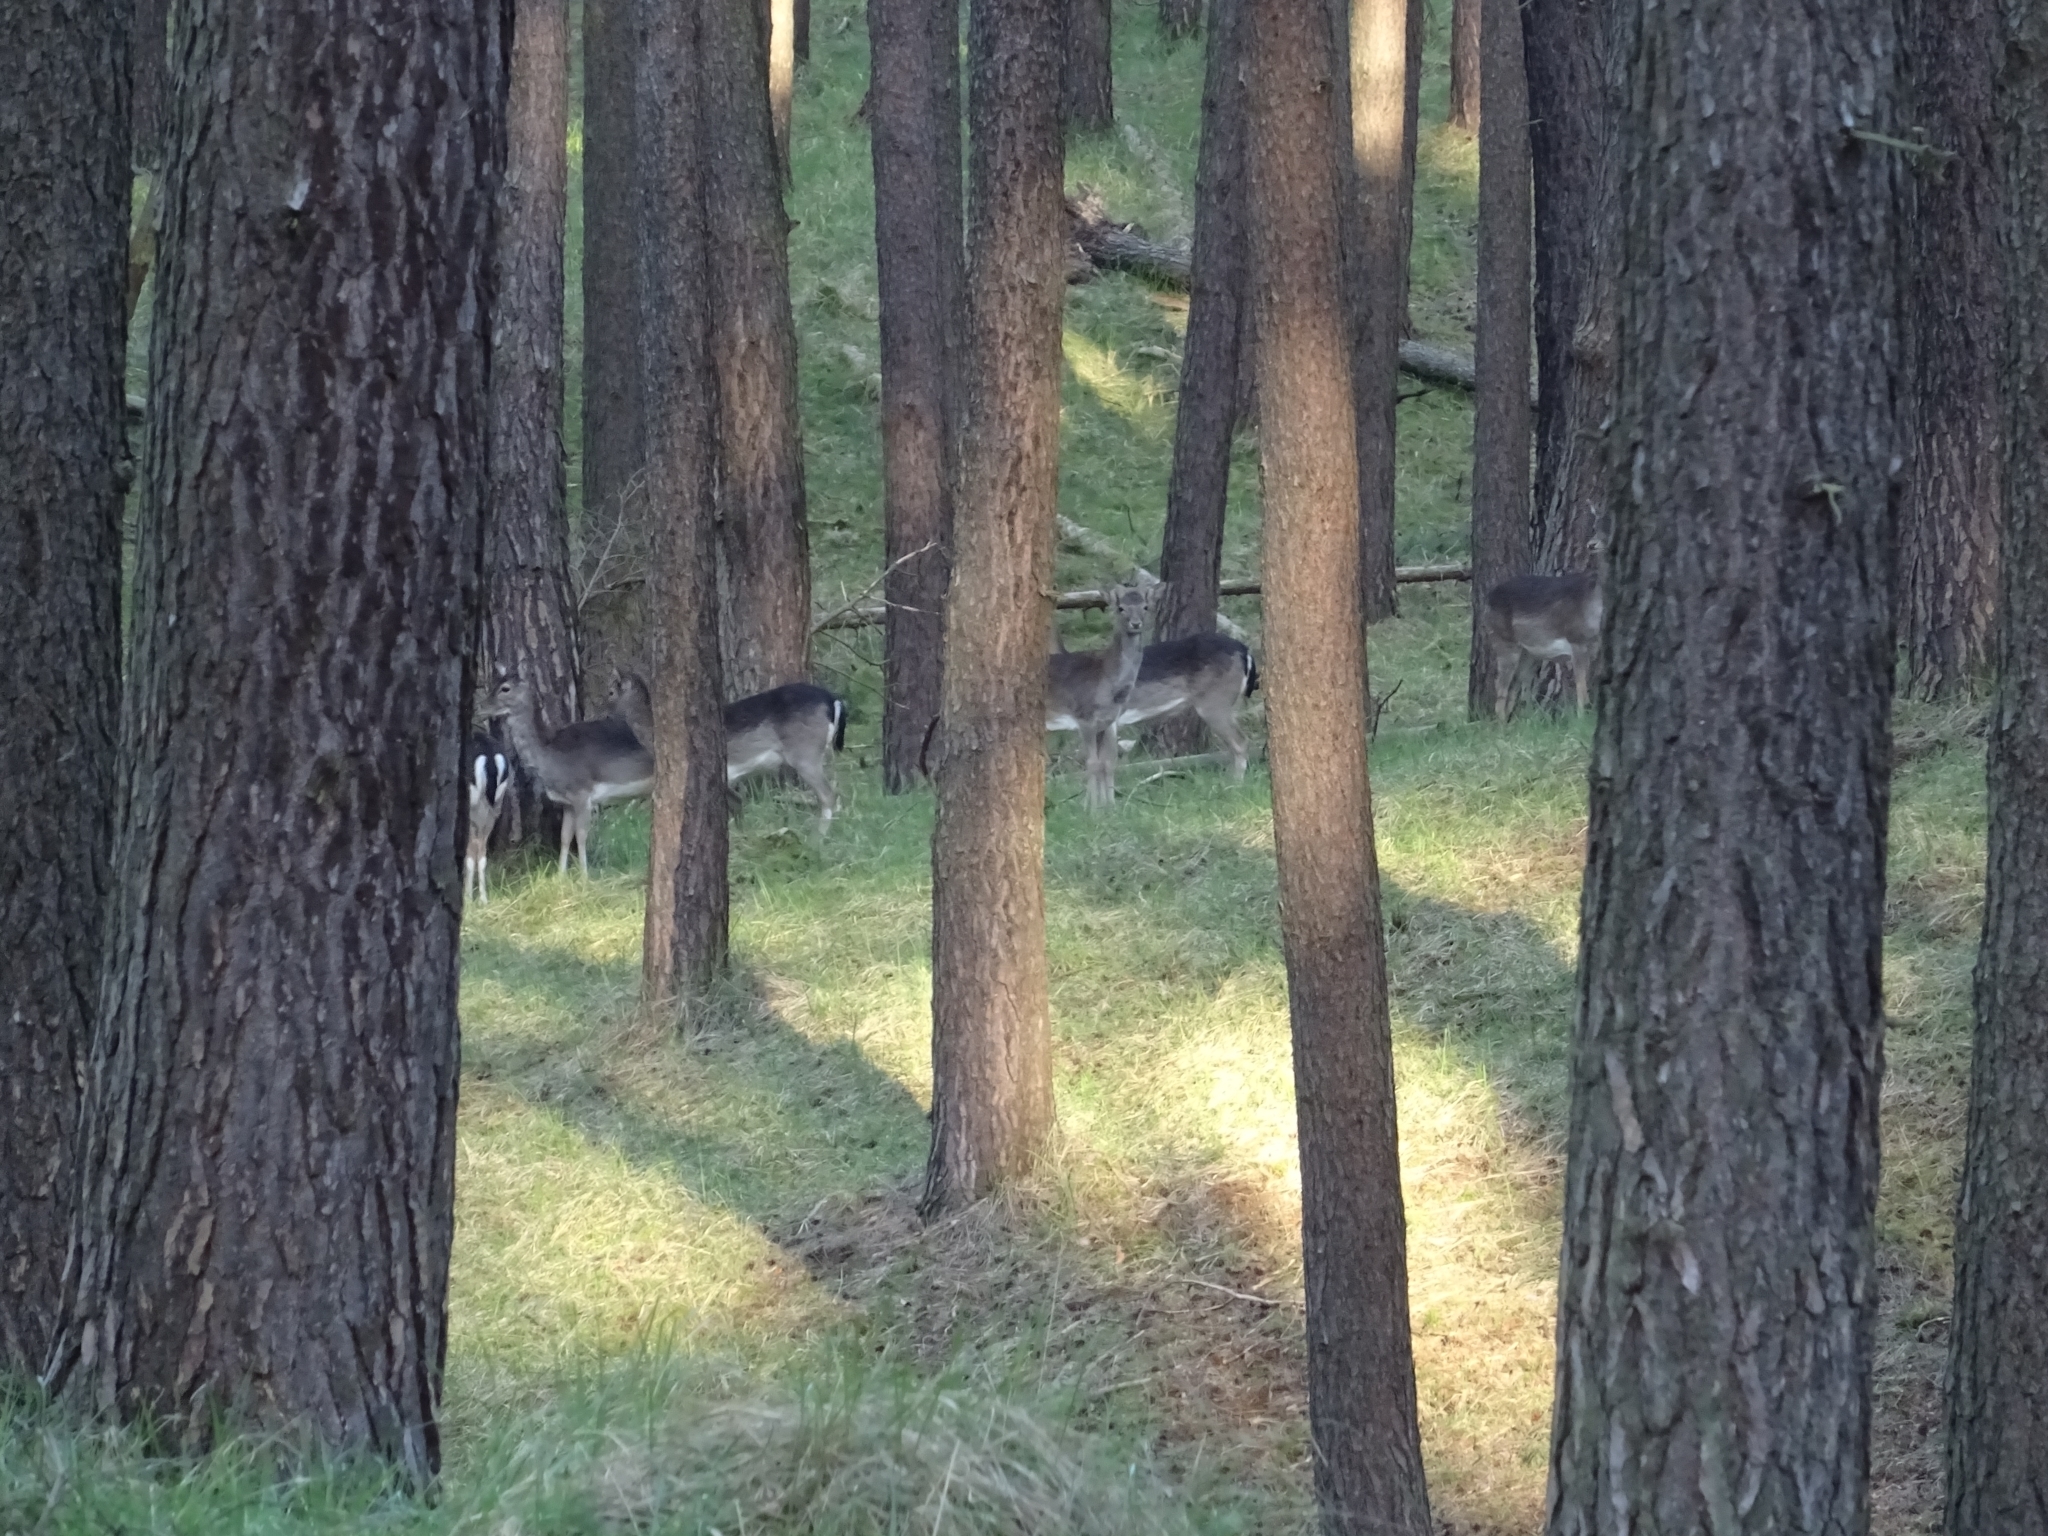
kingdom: Animalia
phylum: Chordata
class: Mammalia
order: Artiodactyla
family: Cervidae
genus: Dama
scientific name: Dama dama
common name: Fallow deer
